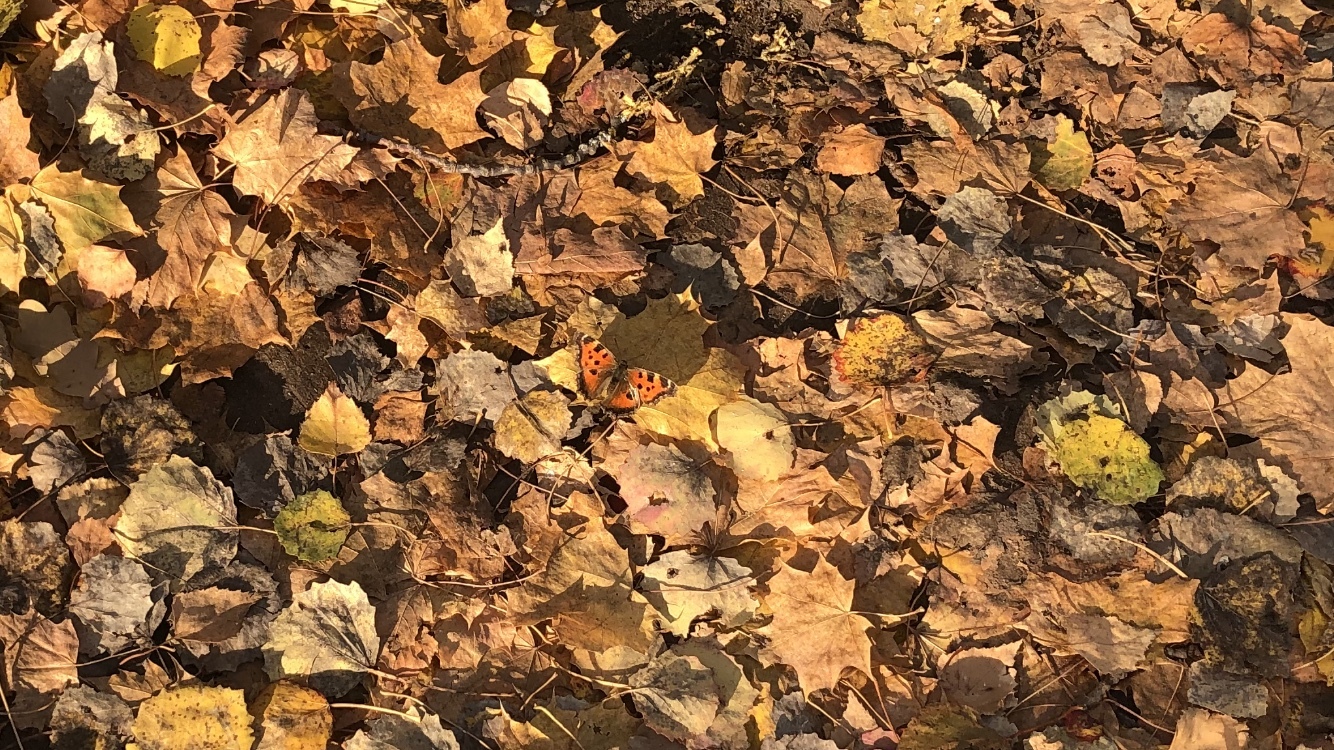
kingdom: Animalia
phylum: Arthropoda
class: Insecta
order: Lepidoptera
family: Nymphalidae
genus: Nymphalis
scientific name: Nymphalis xanthomelas
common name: Scarce tortoiseshell
